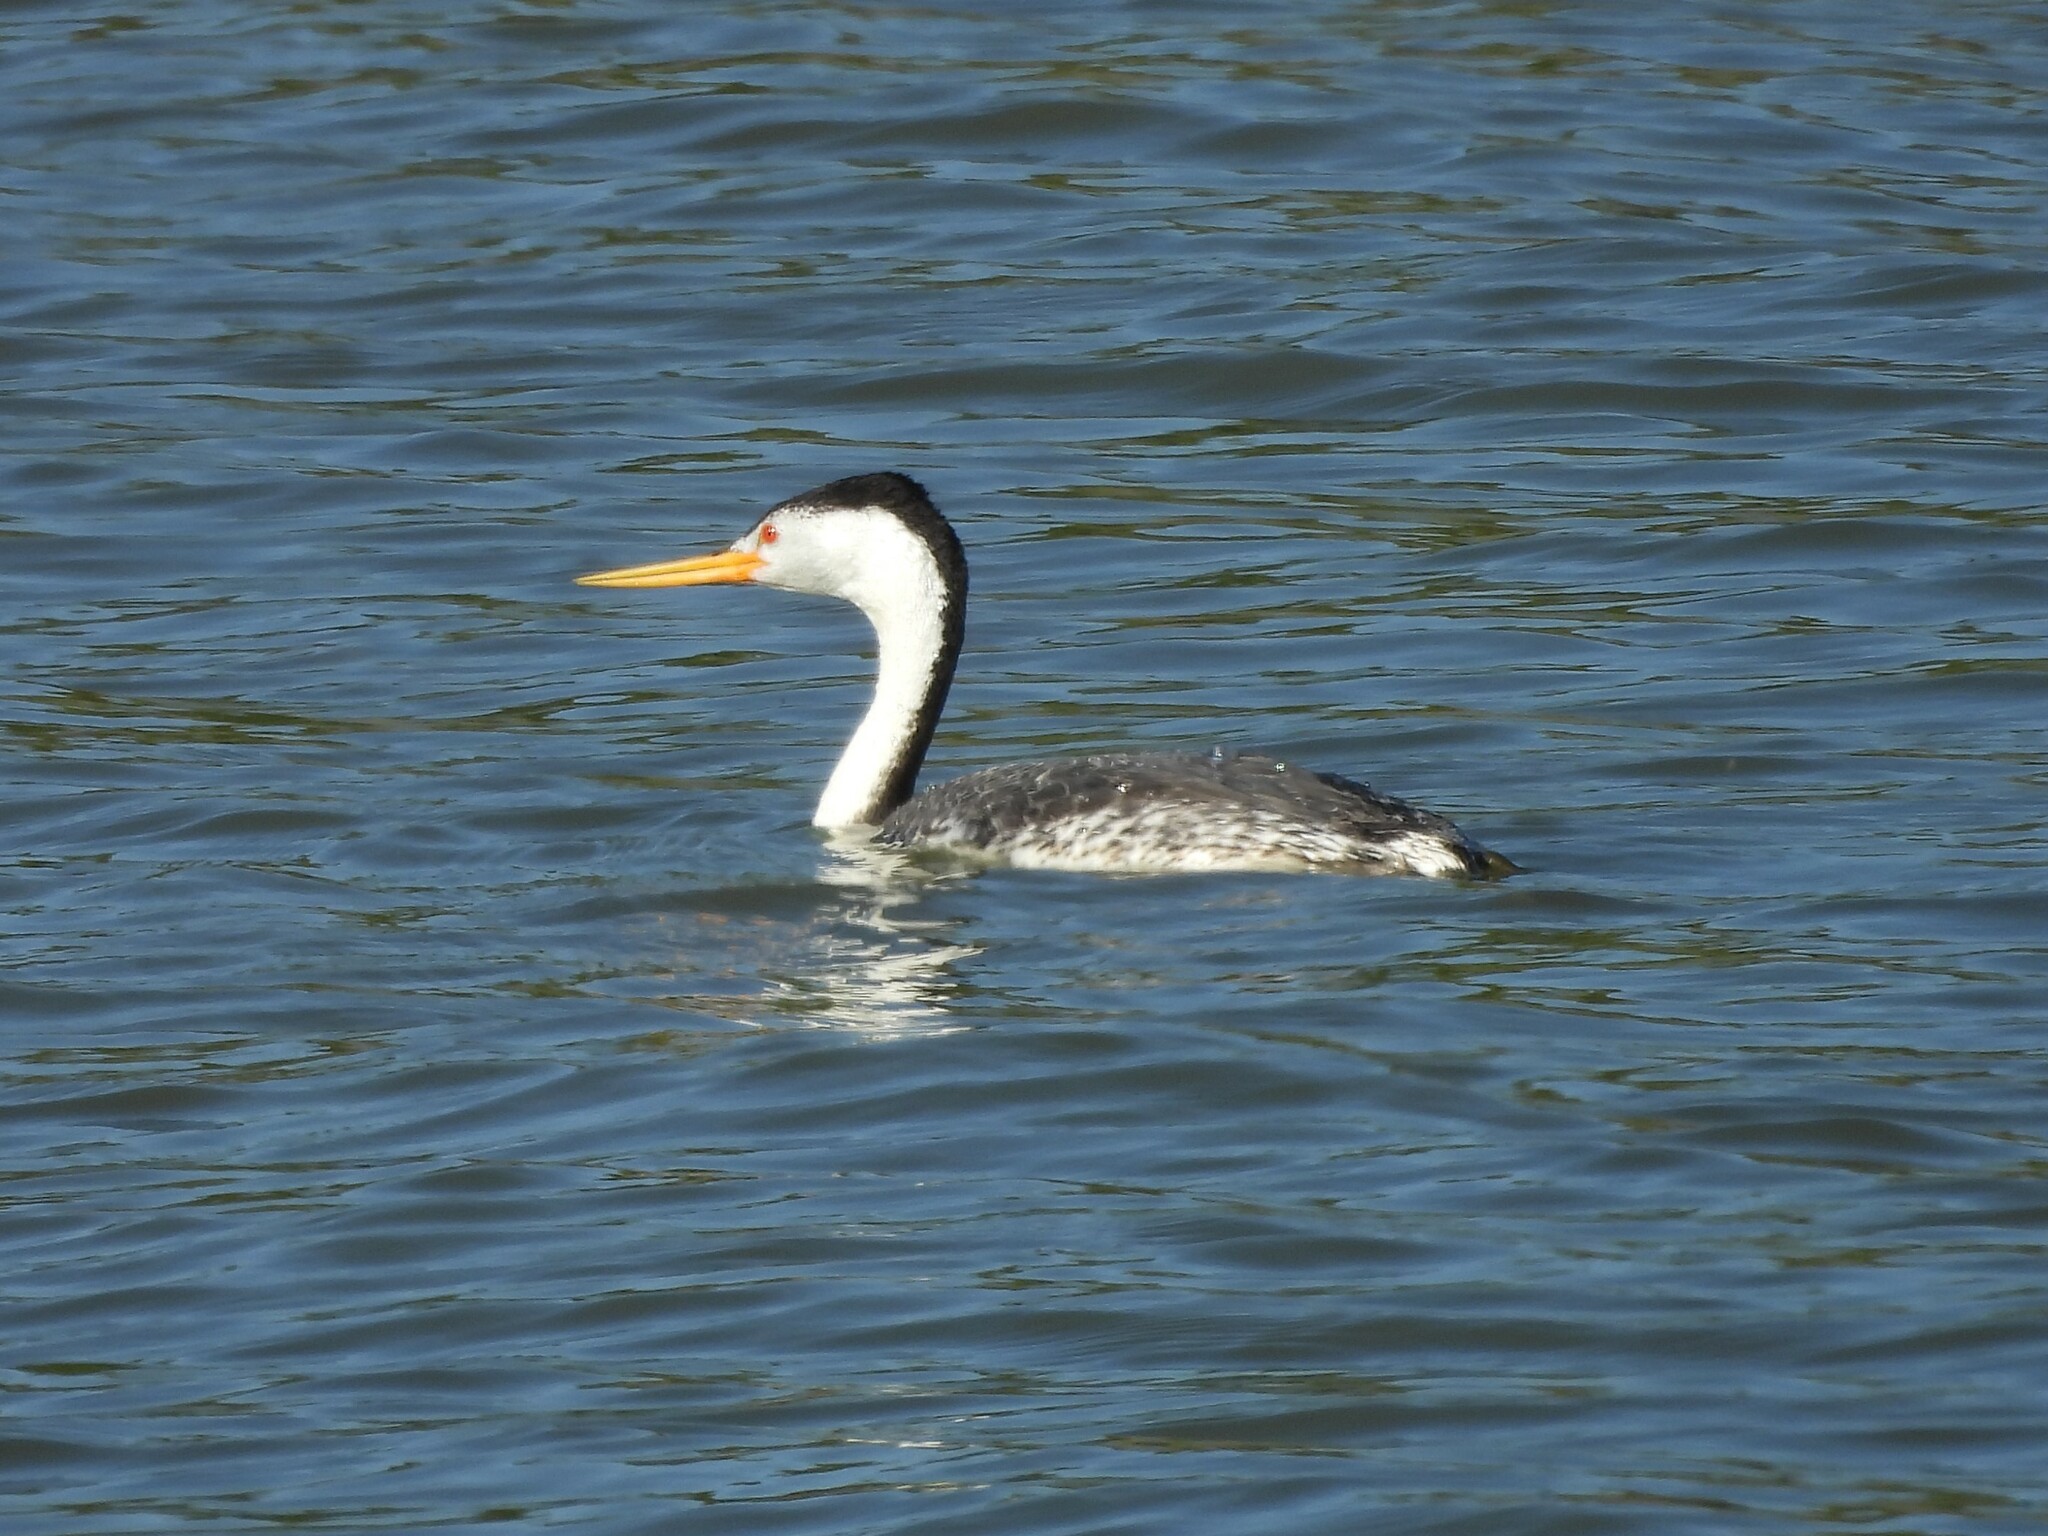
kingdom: Animalia
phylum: Chordata
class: Aves
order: Podicipediformes
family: Podicipedidae
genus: Aechmophorus
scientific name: Aechmophorus clarkii
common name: Clark's grebe
